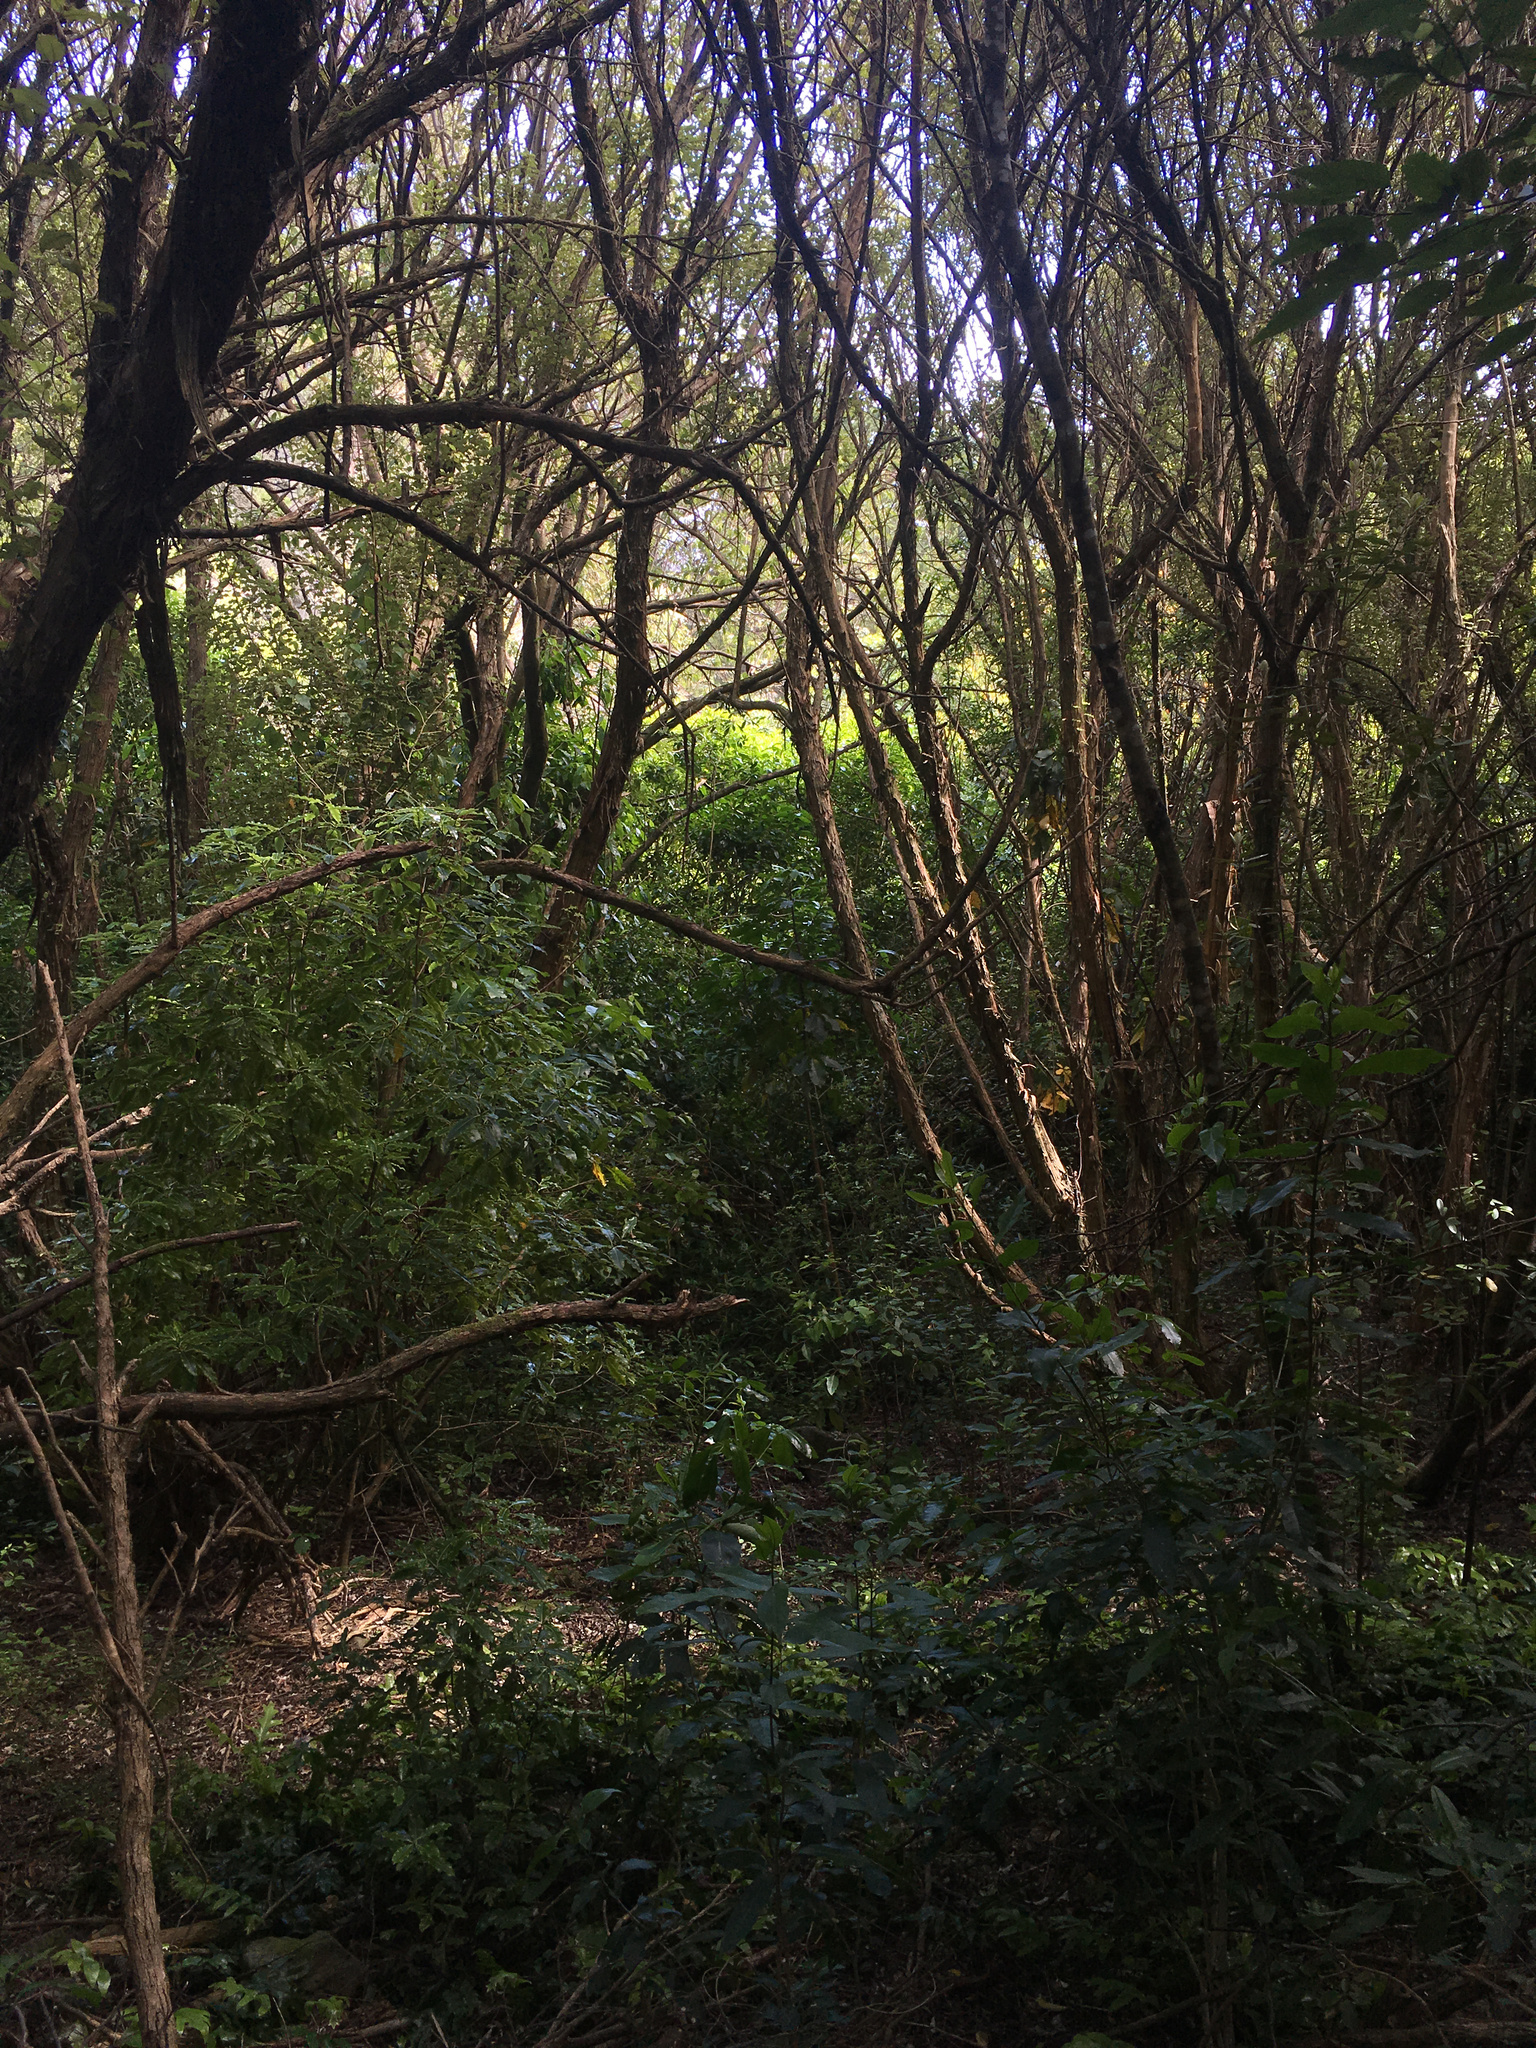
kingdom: Plantae
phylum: Tracheophyta
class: Magnoliopsida
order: Apiales
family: Pittosporaceae
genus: Pittosporum
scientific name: Pittosporum eugenioides
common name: Lemonwood
